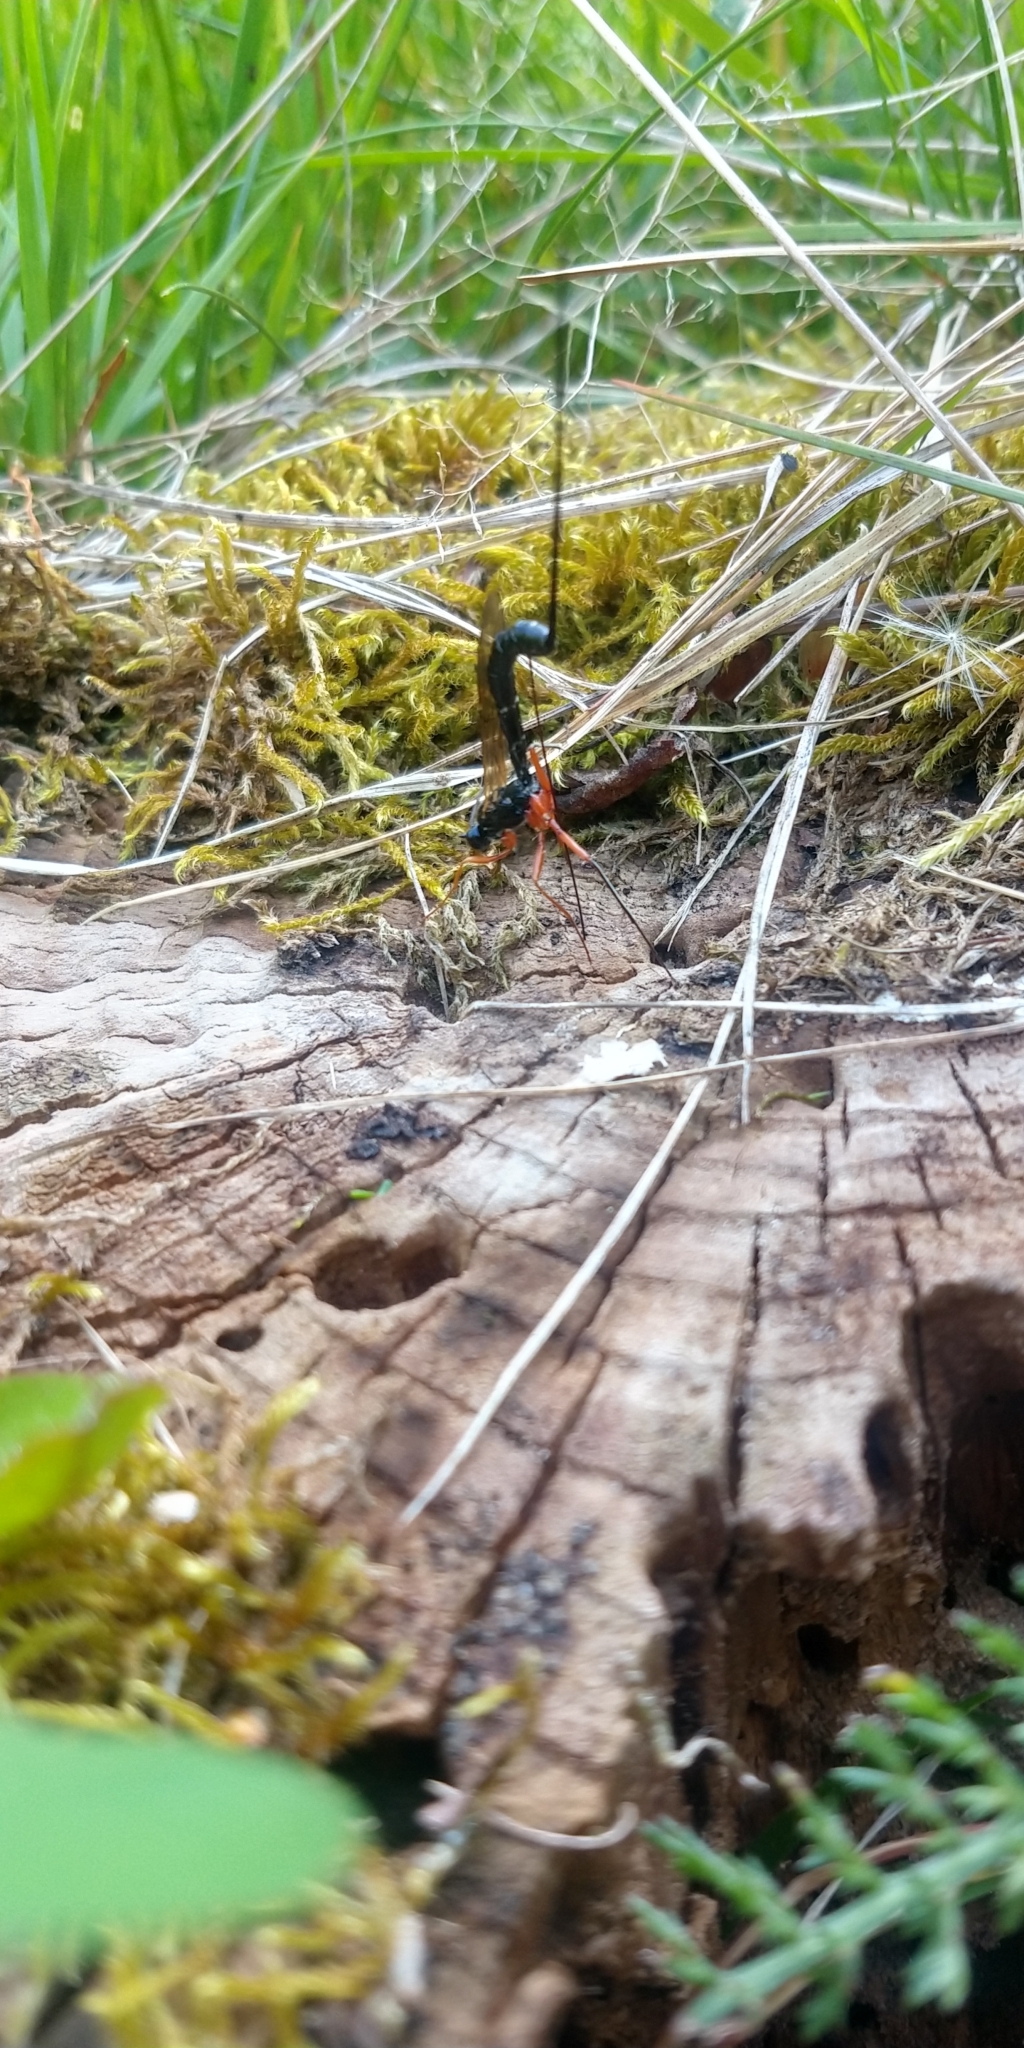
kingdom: Animalia
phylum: Arthropoda
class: Insecta
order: Hymenoptera
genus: Ephialtina
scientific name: Ephialtina
